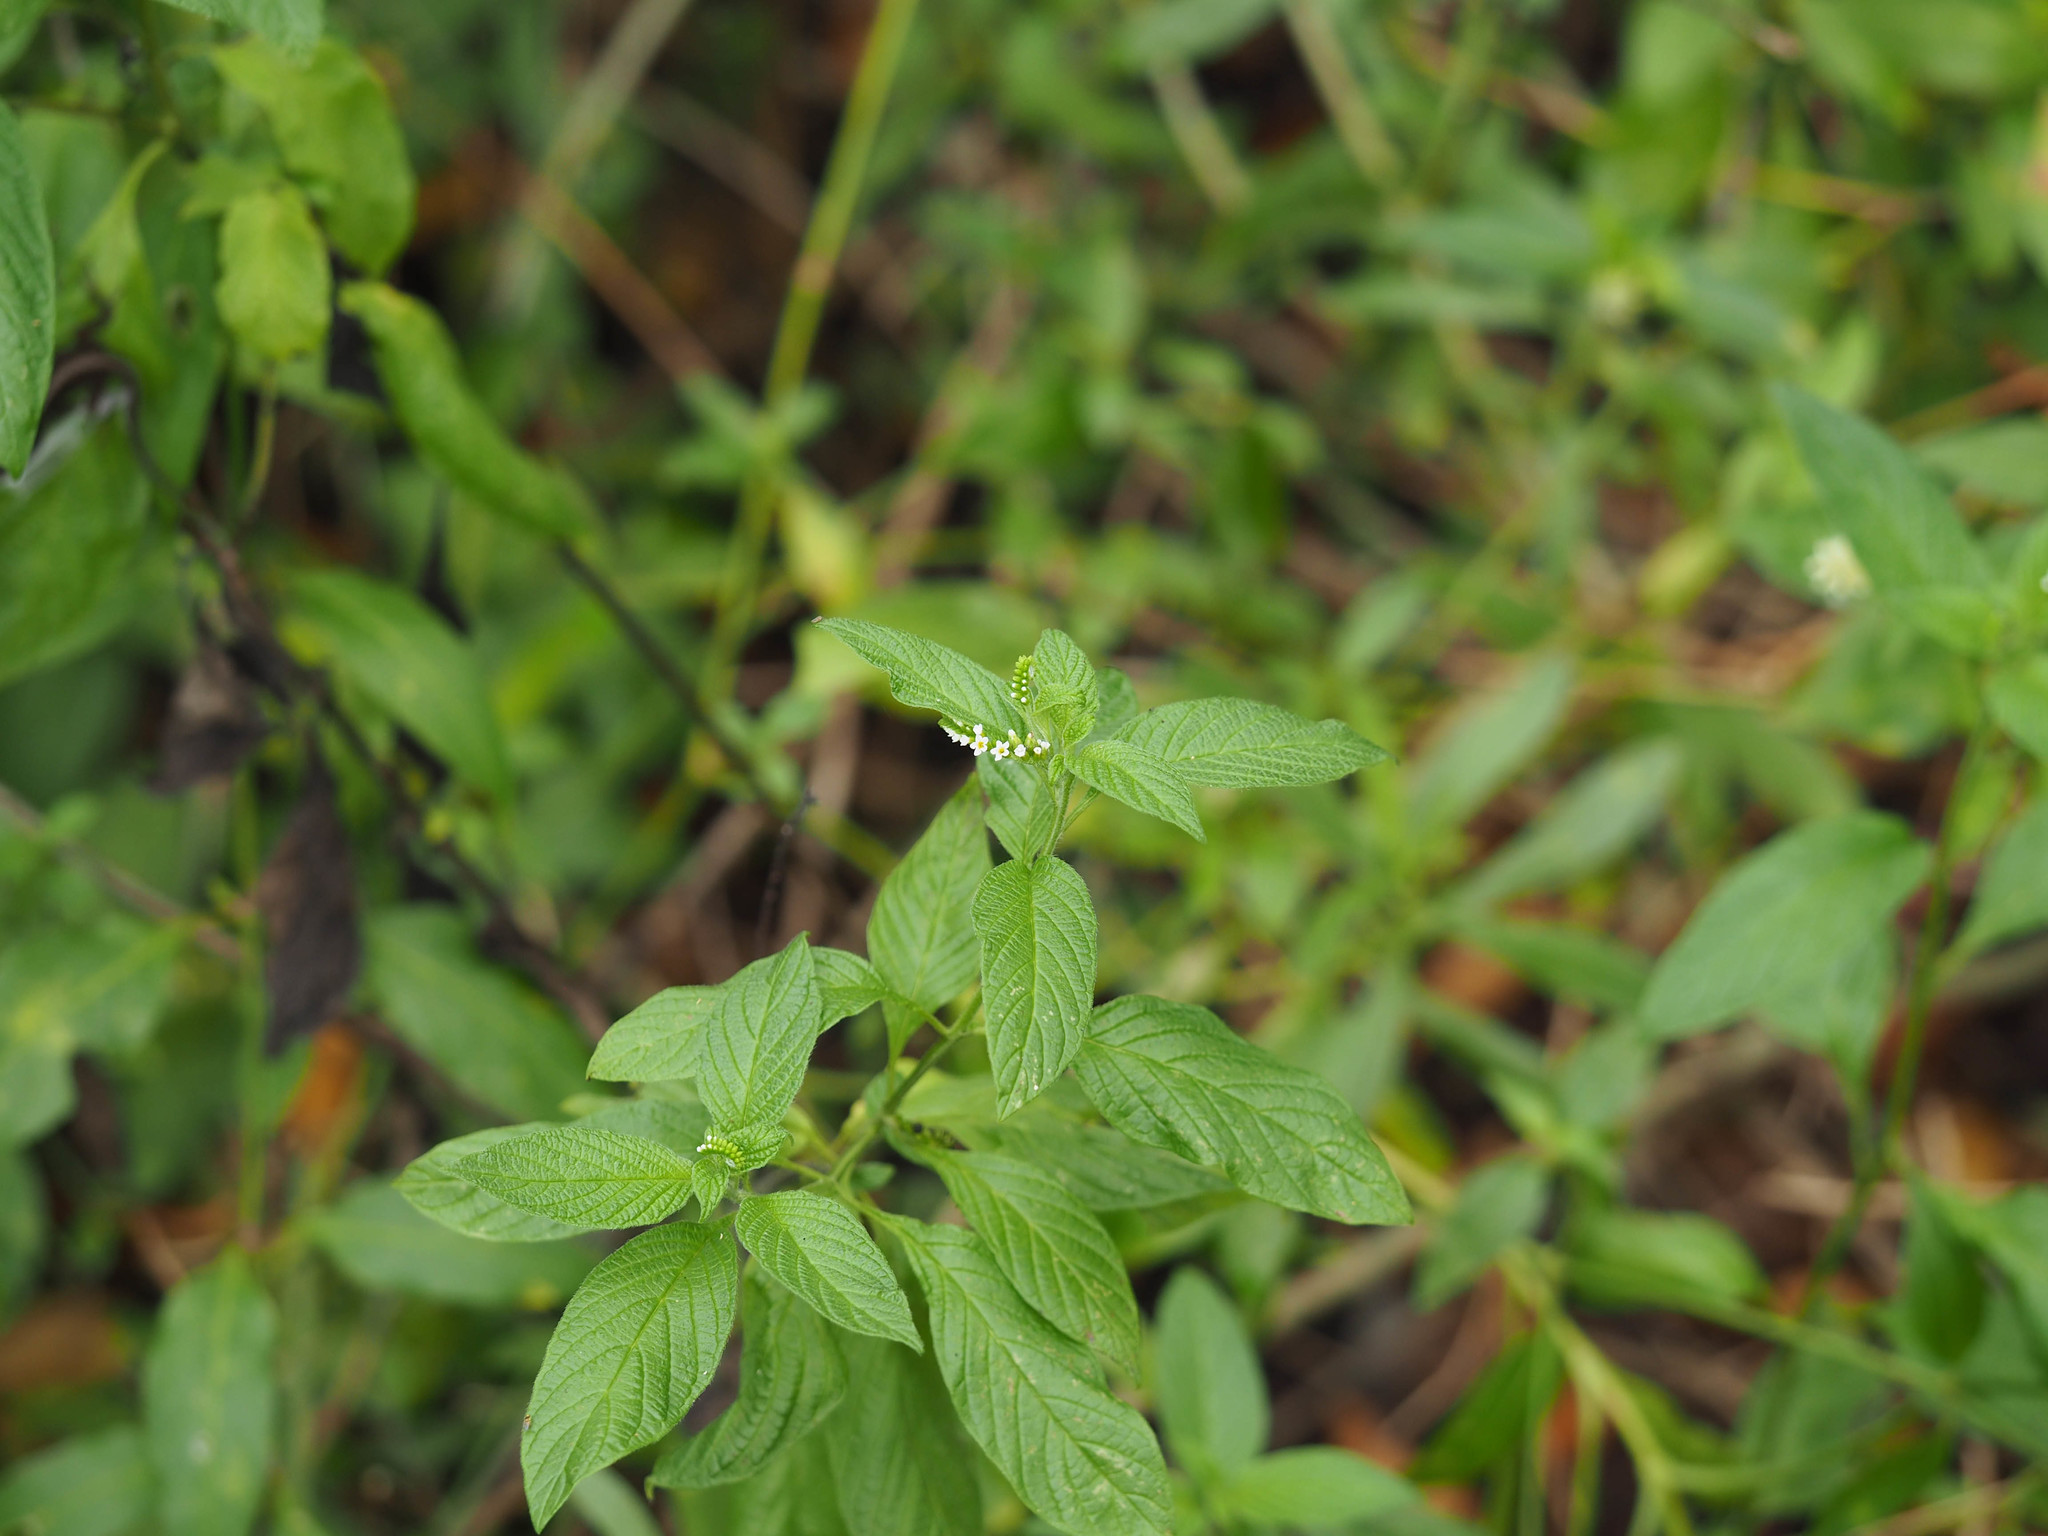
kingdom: Plantae
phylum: Tracheophyta
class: Magnoliopsida
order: Boraginales
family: Heliotropiaceae
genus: Heliotropium
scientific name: Heliotropium angiospermum
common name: Eye bright
